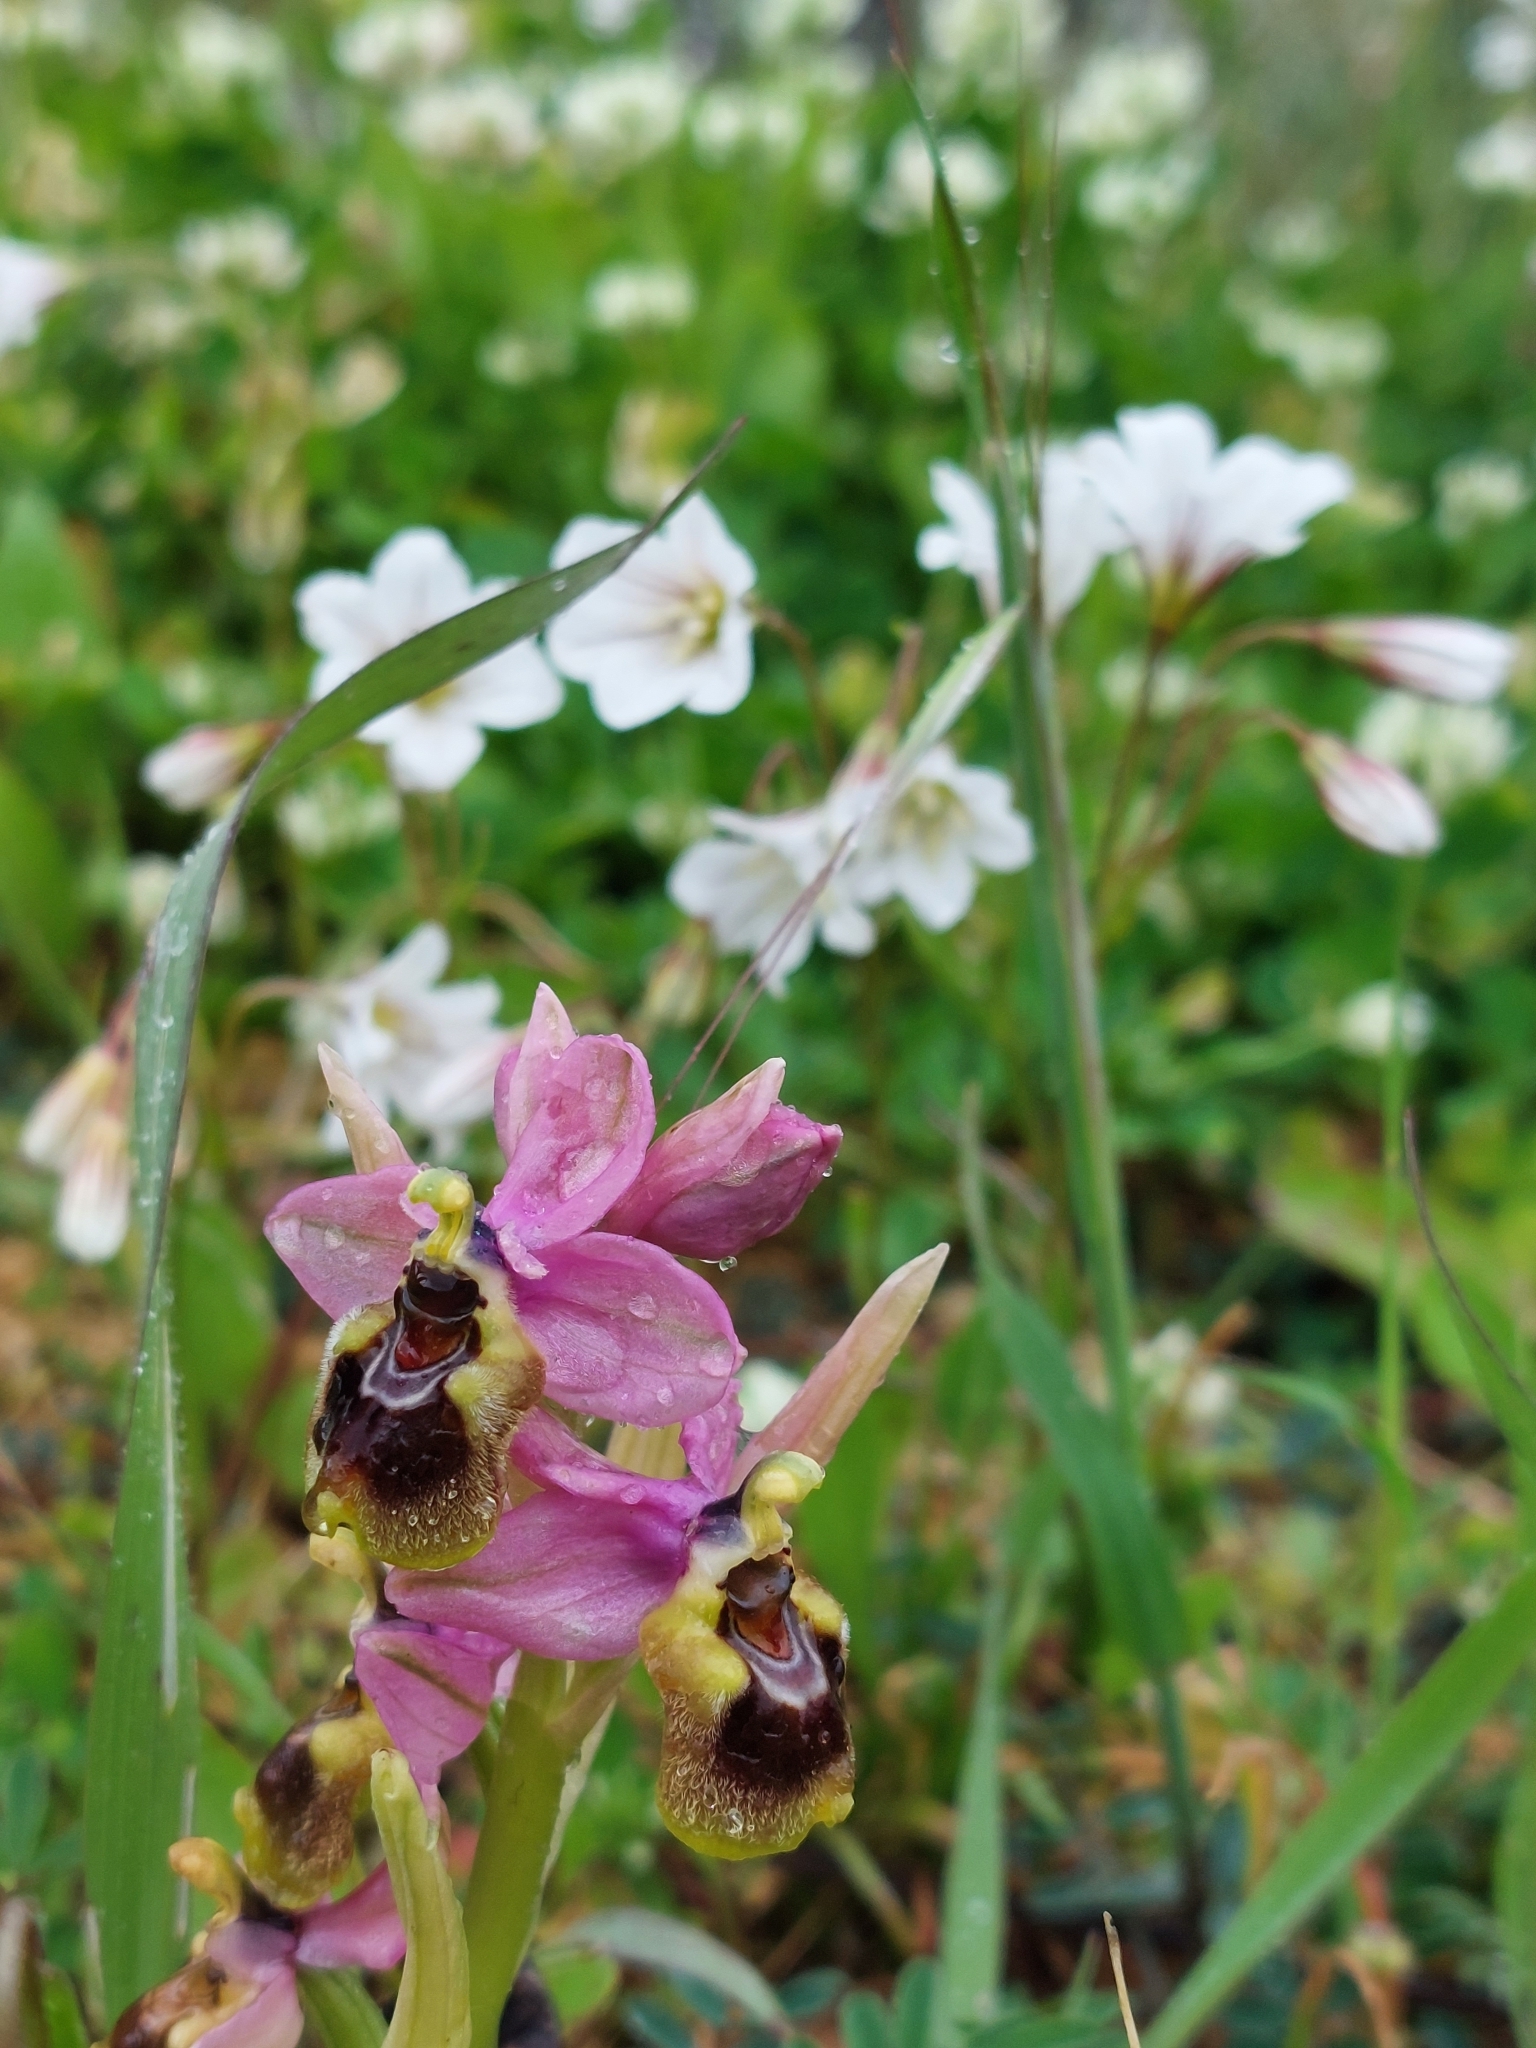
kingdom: Plantae
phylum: Tracheophyta
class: Liliopsida
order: Asparagales
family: Orchidaceae
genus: Ophrys
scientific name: Ophrys tenthredinifera
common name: Sawfly orchid
